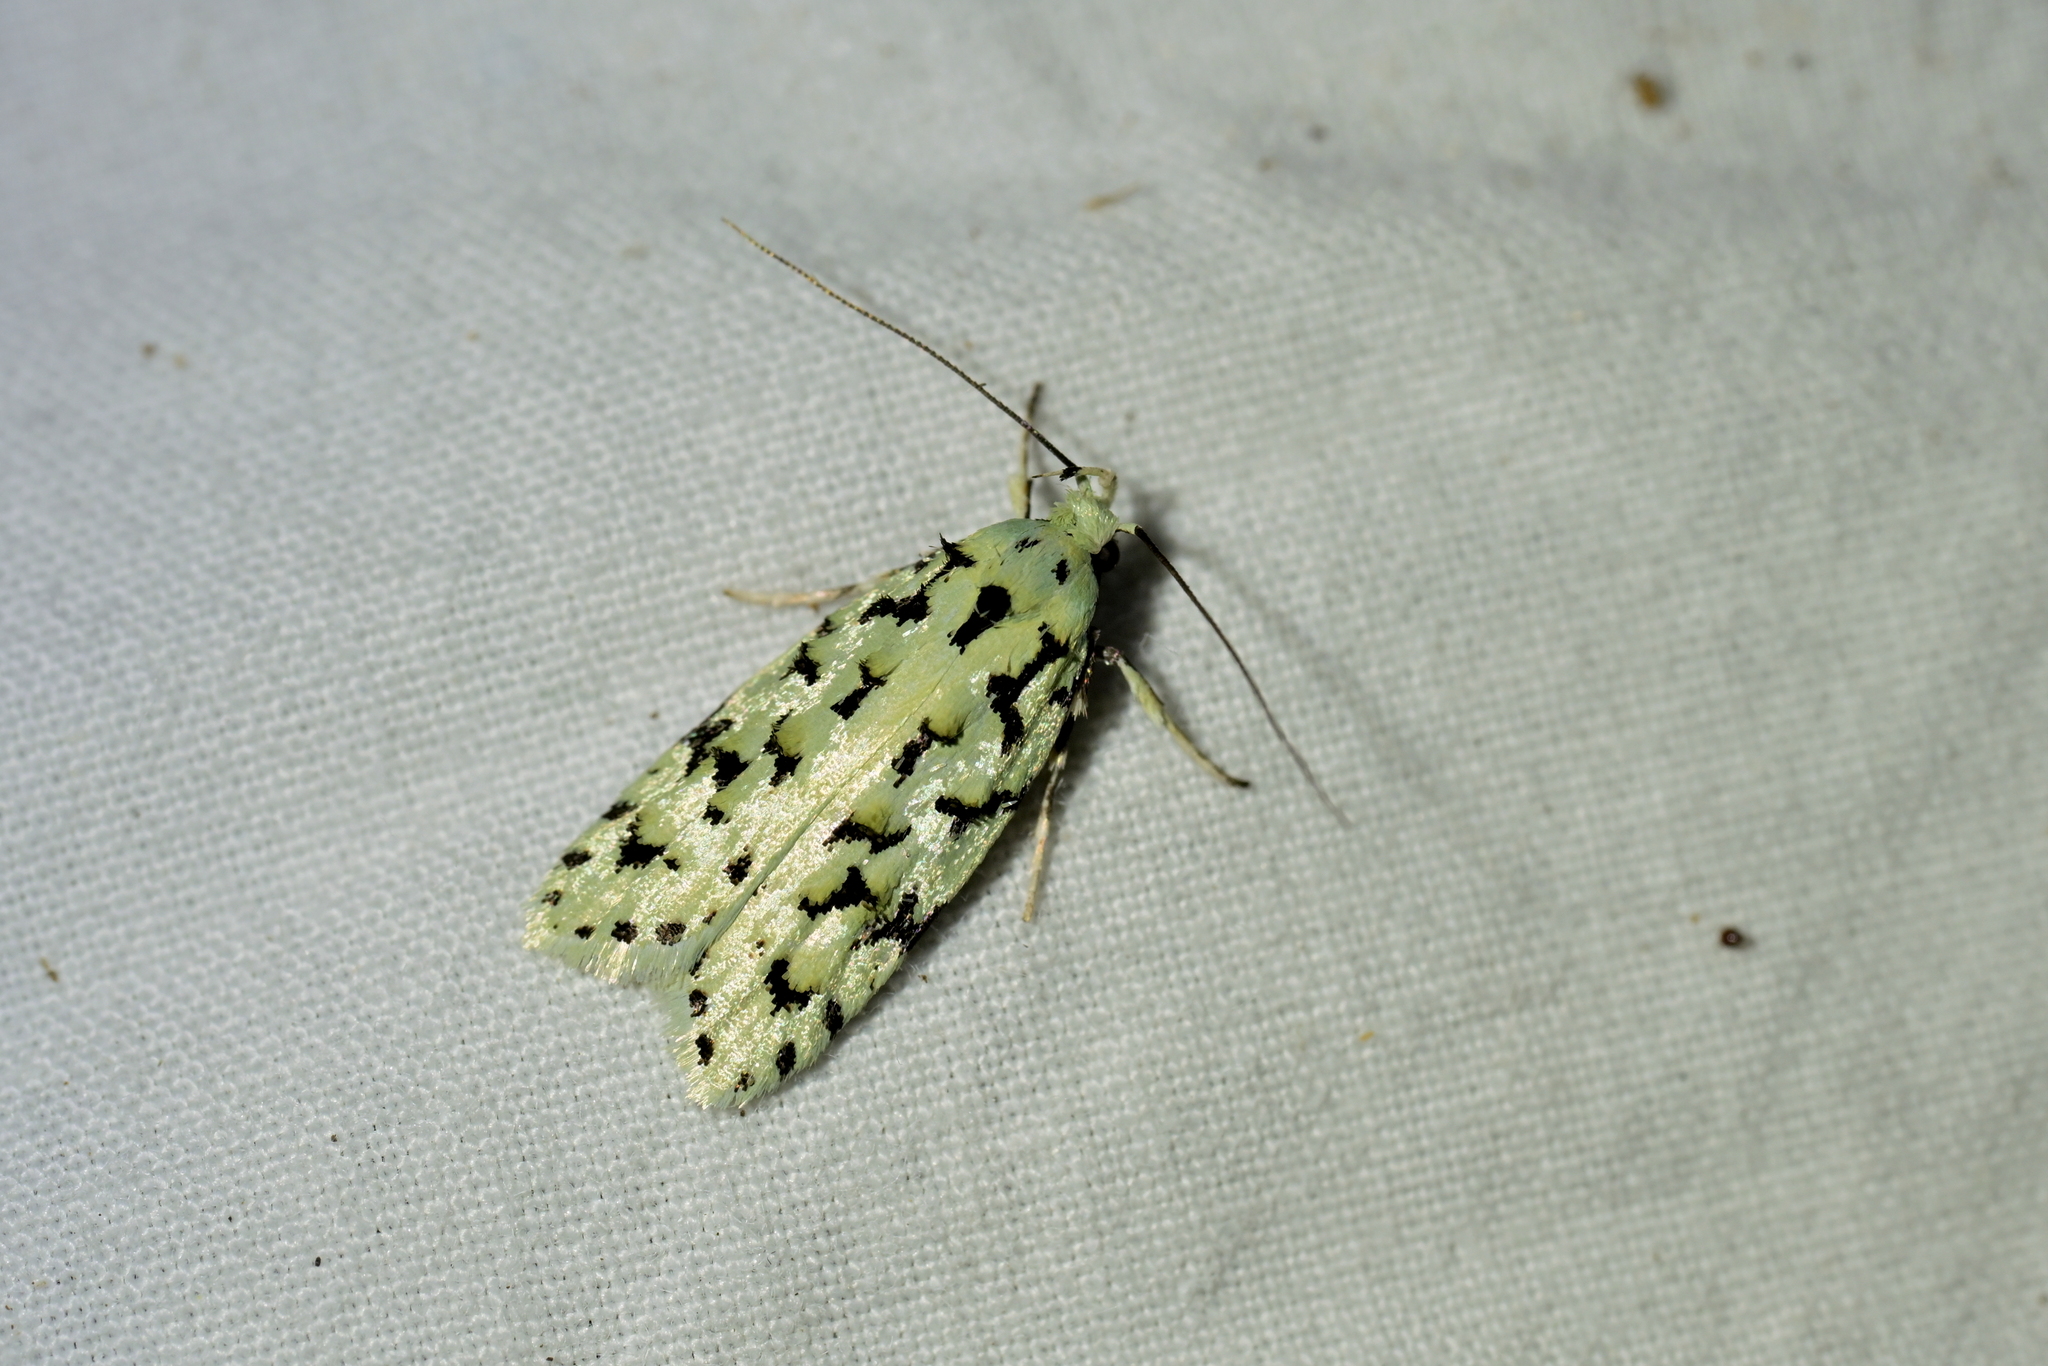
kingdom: Animalia
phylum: Arthropoda
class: Insecta
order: Lepidoptera
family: Oecophoridae
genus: Izatha
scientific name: Izatha peroneanella
